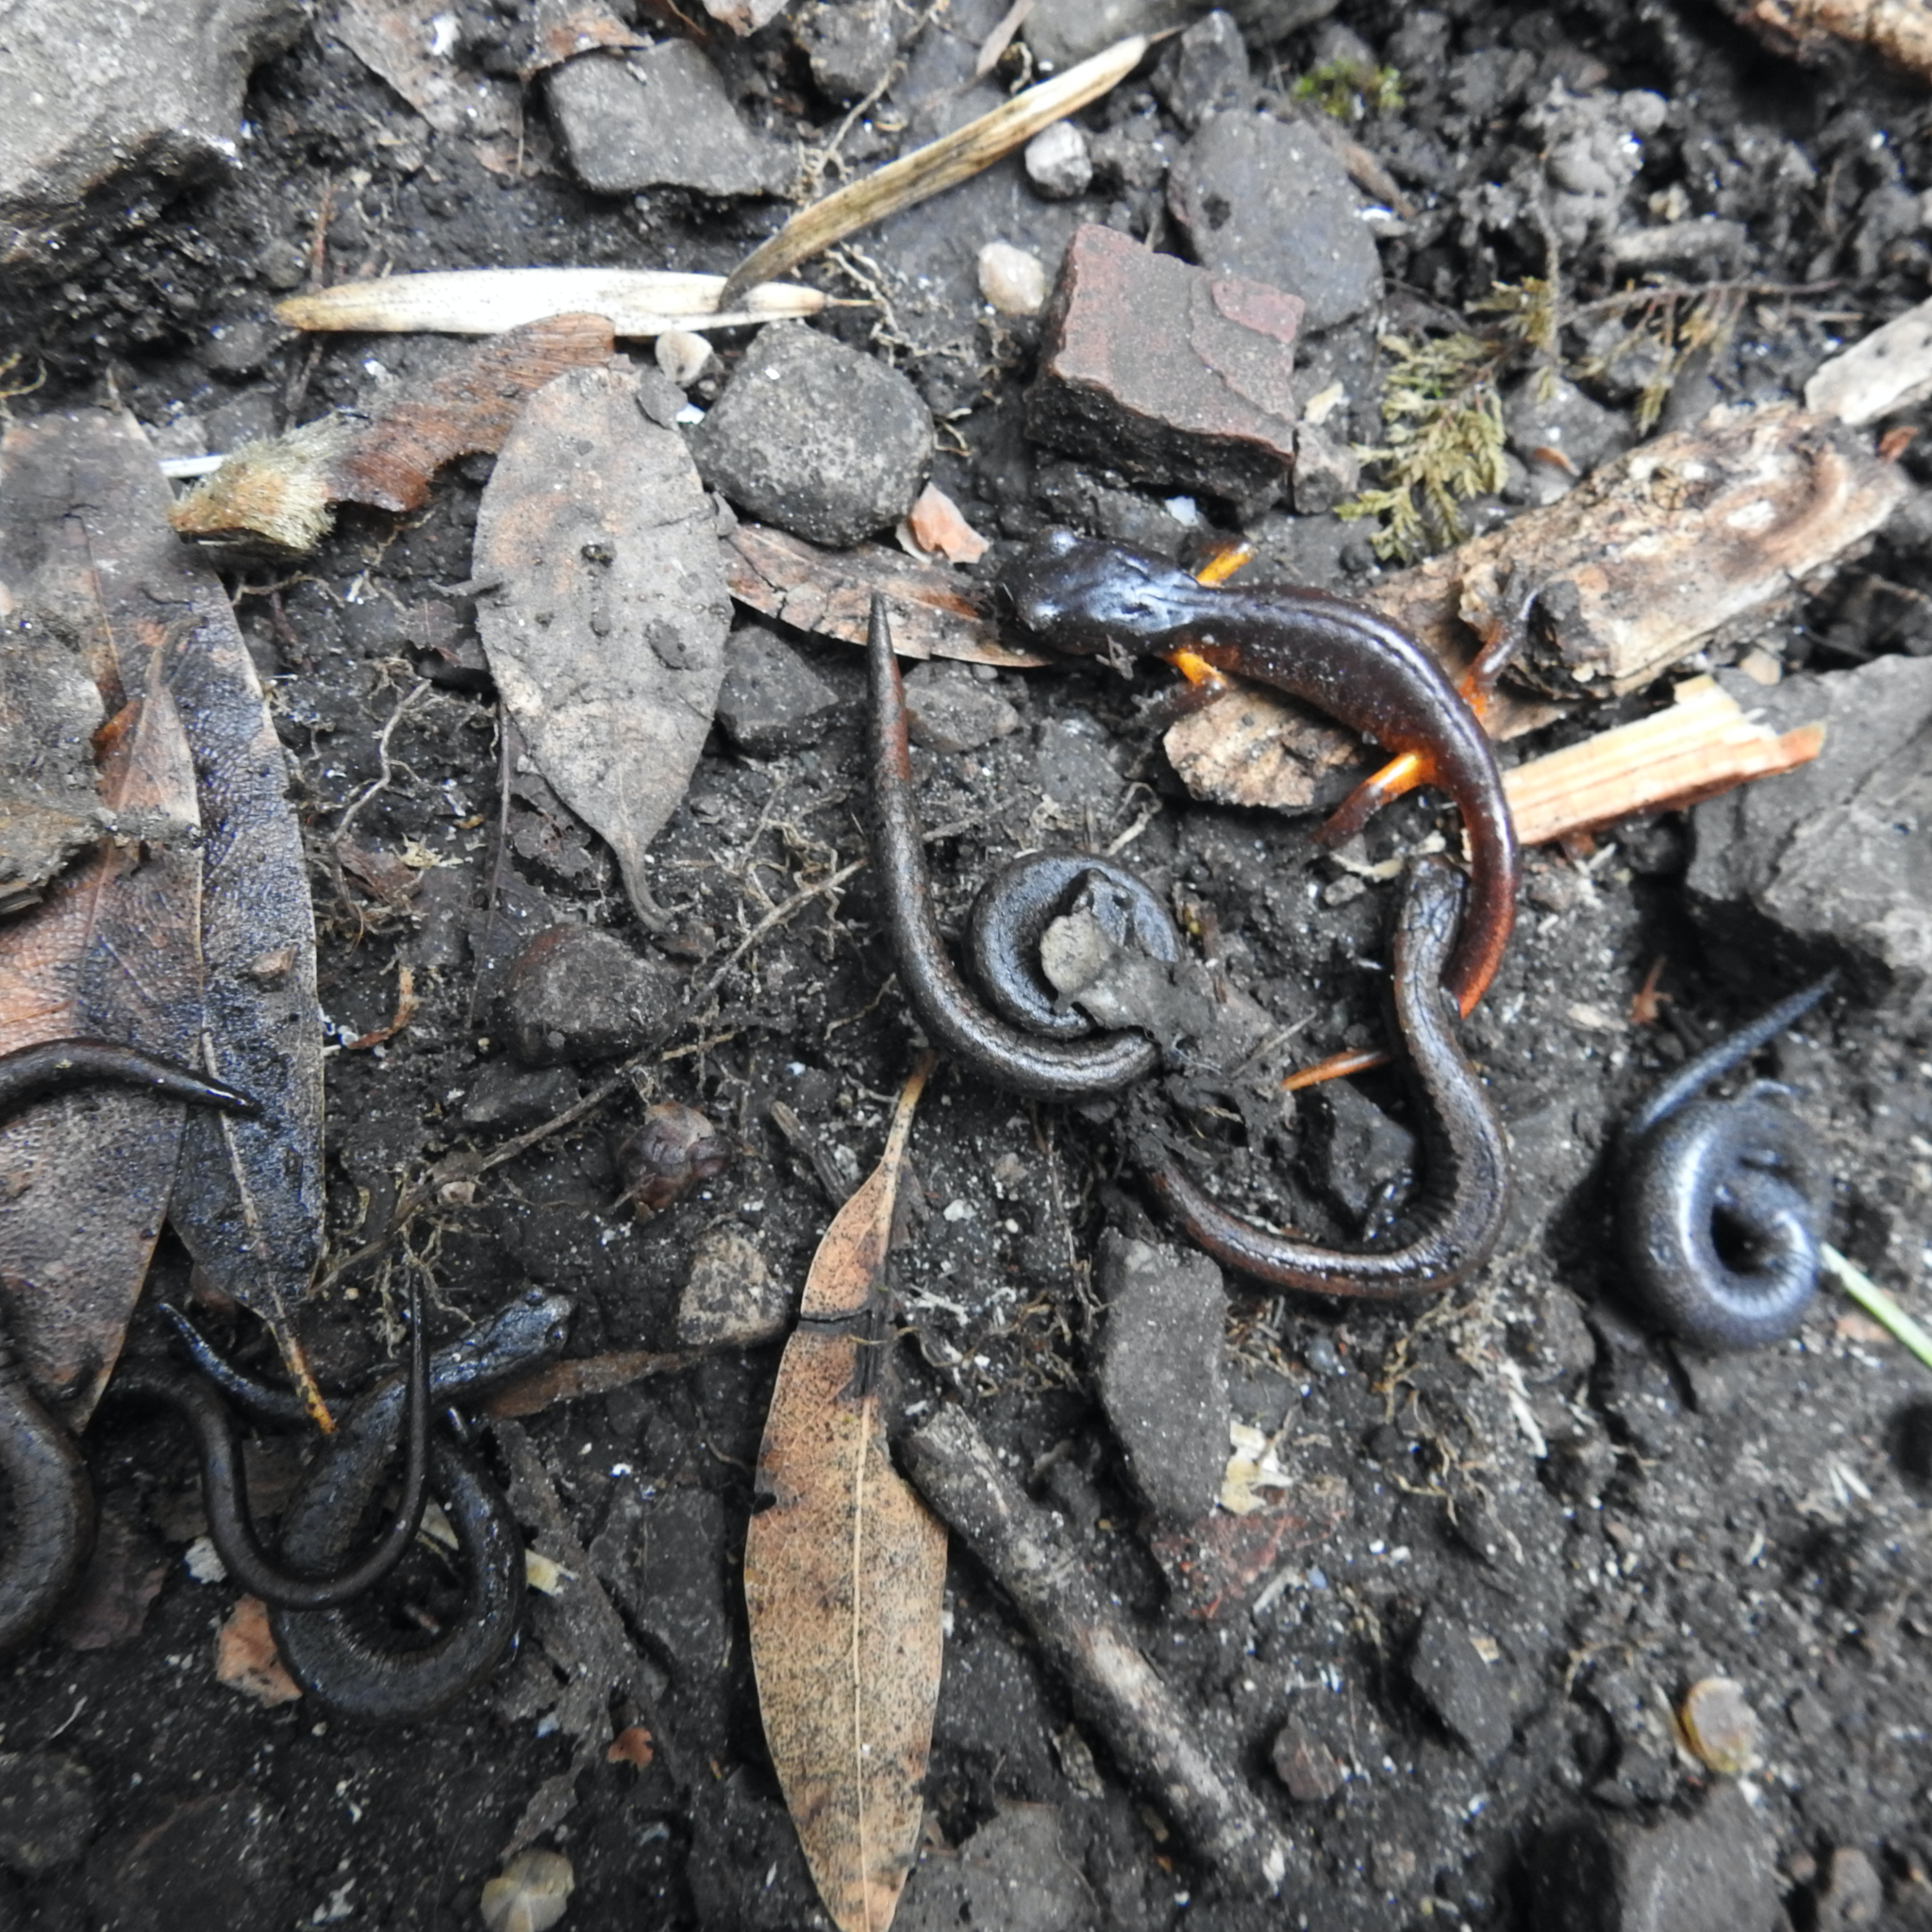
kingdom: Animalia
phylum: Chordata
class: Amphibia
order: Caudata
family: Plethodontidae
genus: Batrachoseps
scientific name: Batrachoseps attenuatus
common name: California slender salamander
